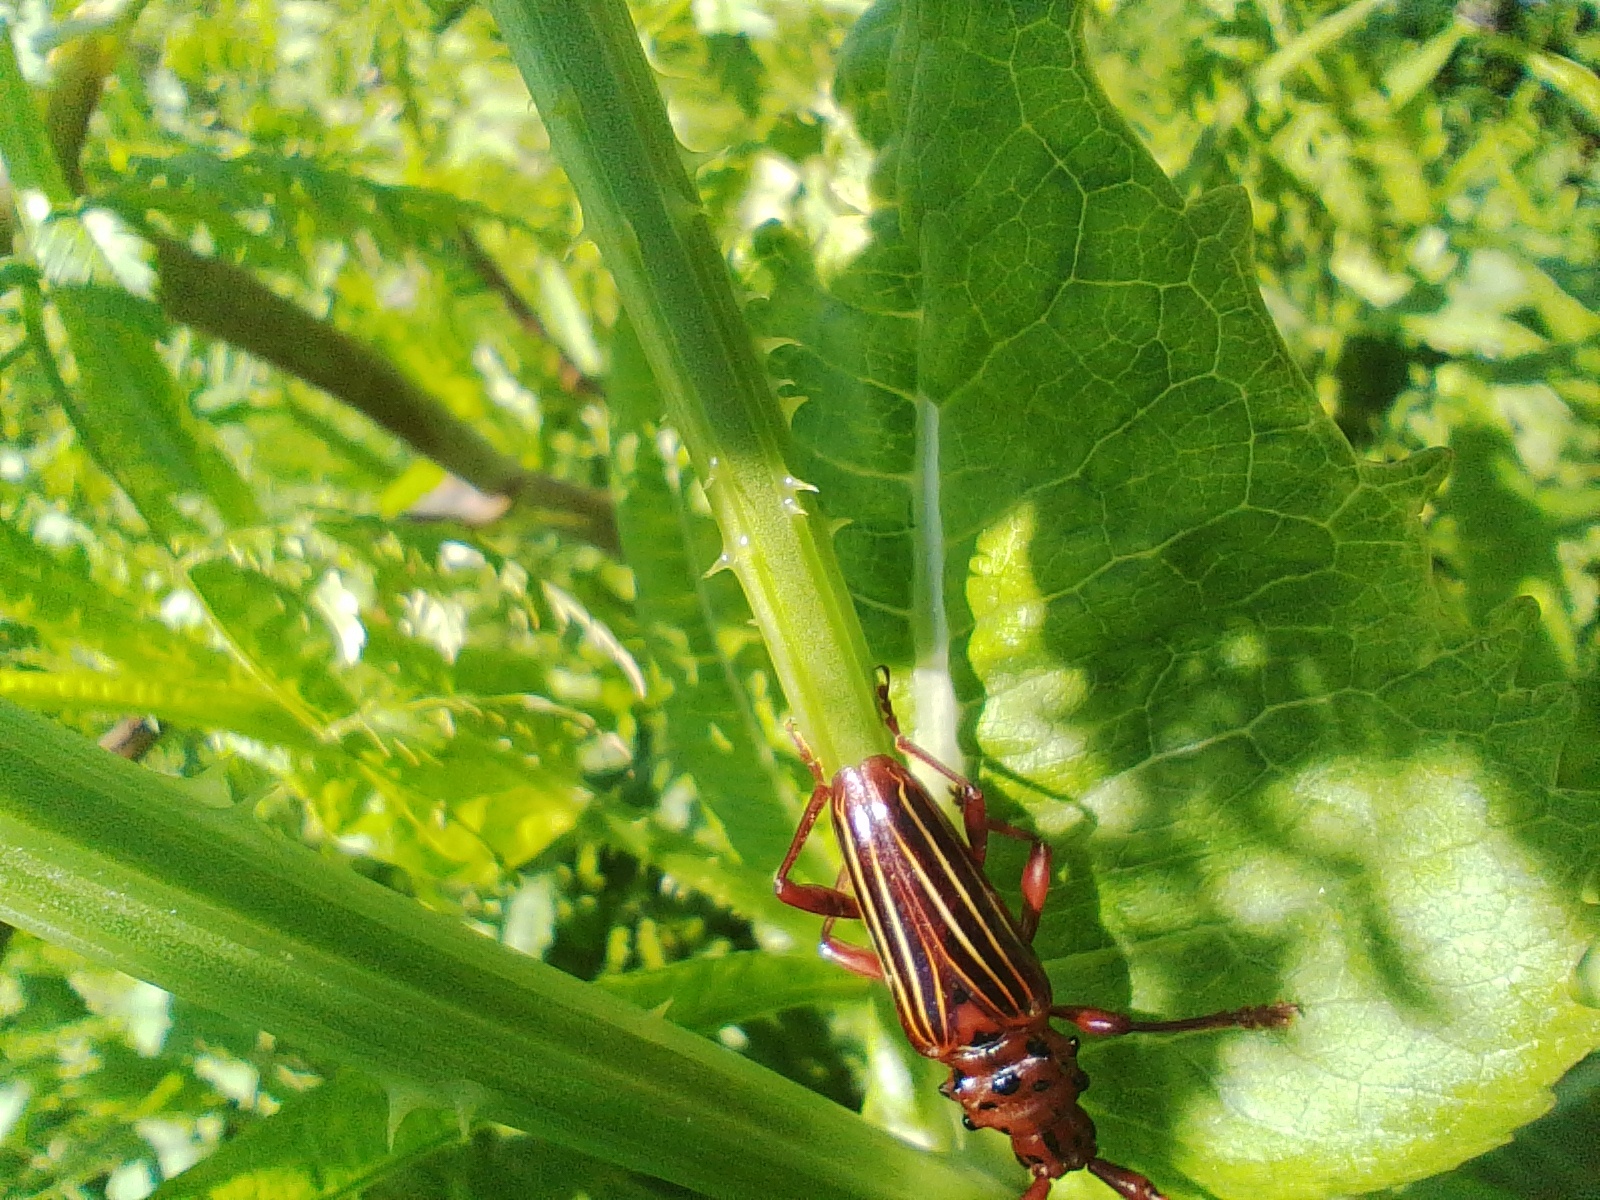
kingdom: Animalia
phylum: Arthropoda
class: Insecta
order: Coleoptera
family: Cerambycidae
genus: Chydarteres
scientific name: Chydarteres striatus
